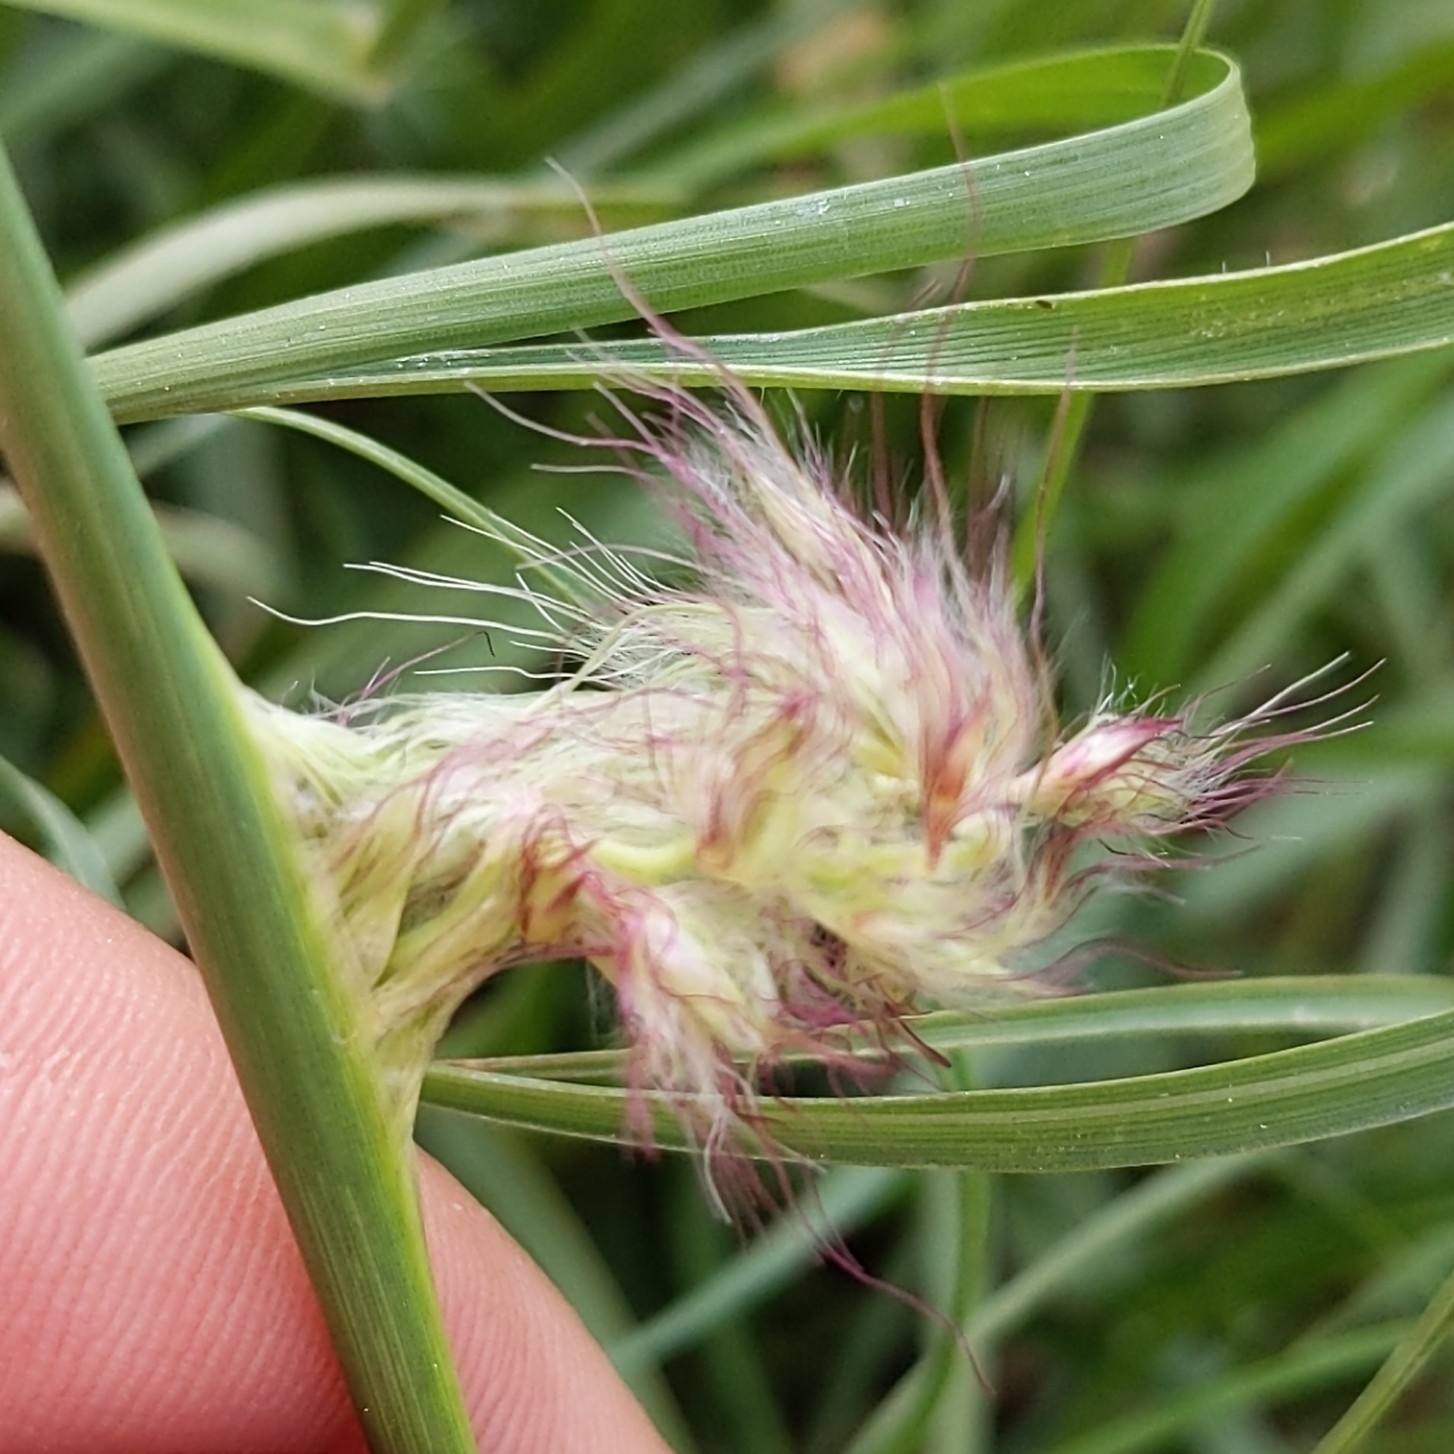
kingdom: Plantae
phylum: Tracheophyta
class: Liliopsida
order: Poales
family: Poaceae
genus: Cenchrus
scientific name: Cenchrus ciliaris
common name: Buffelgrass
